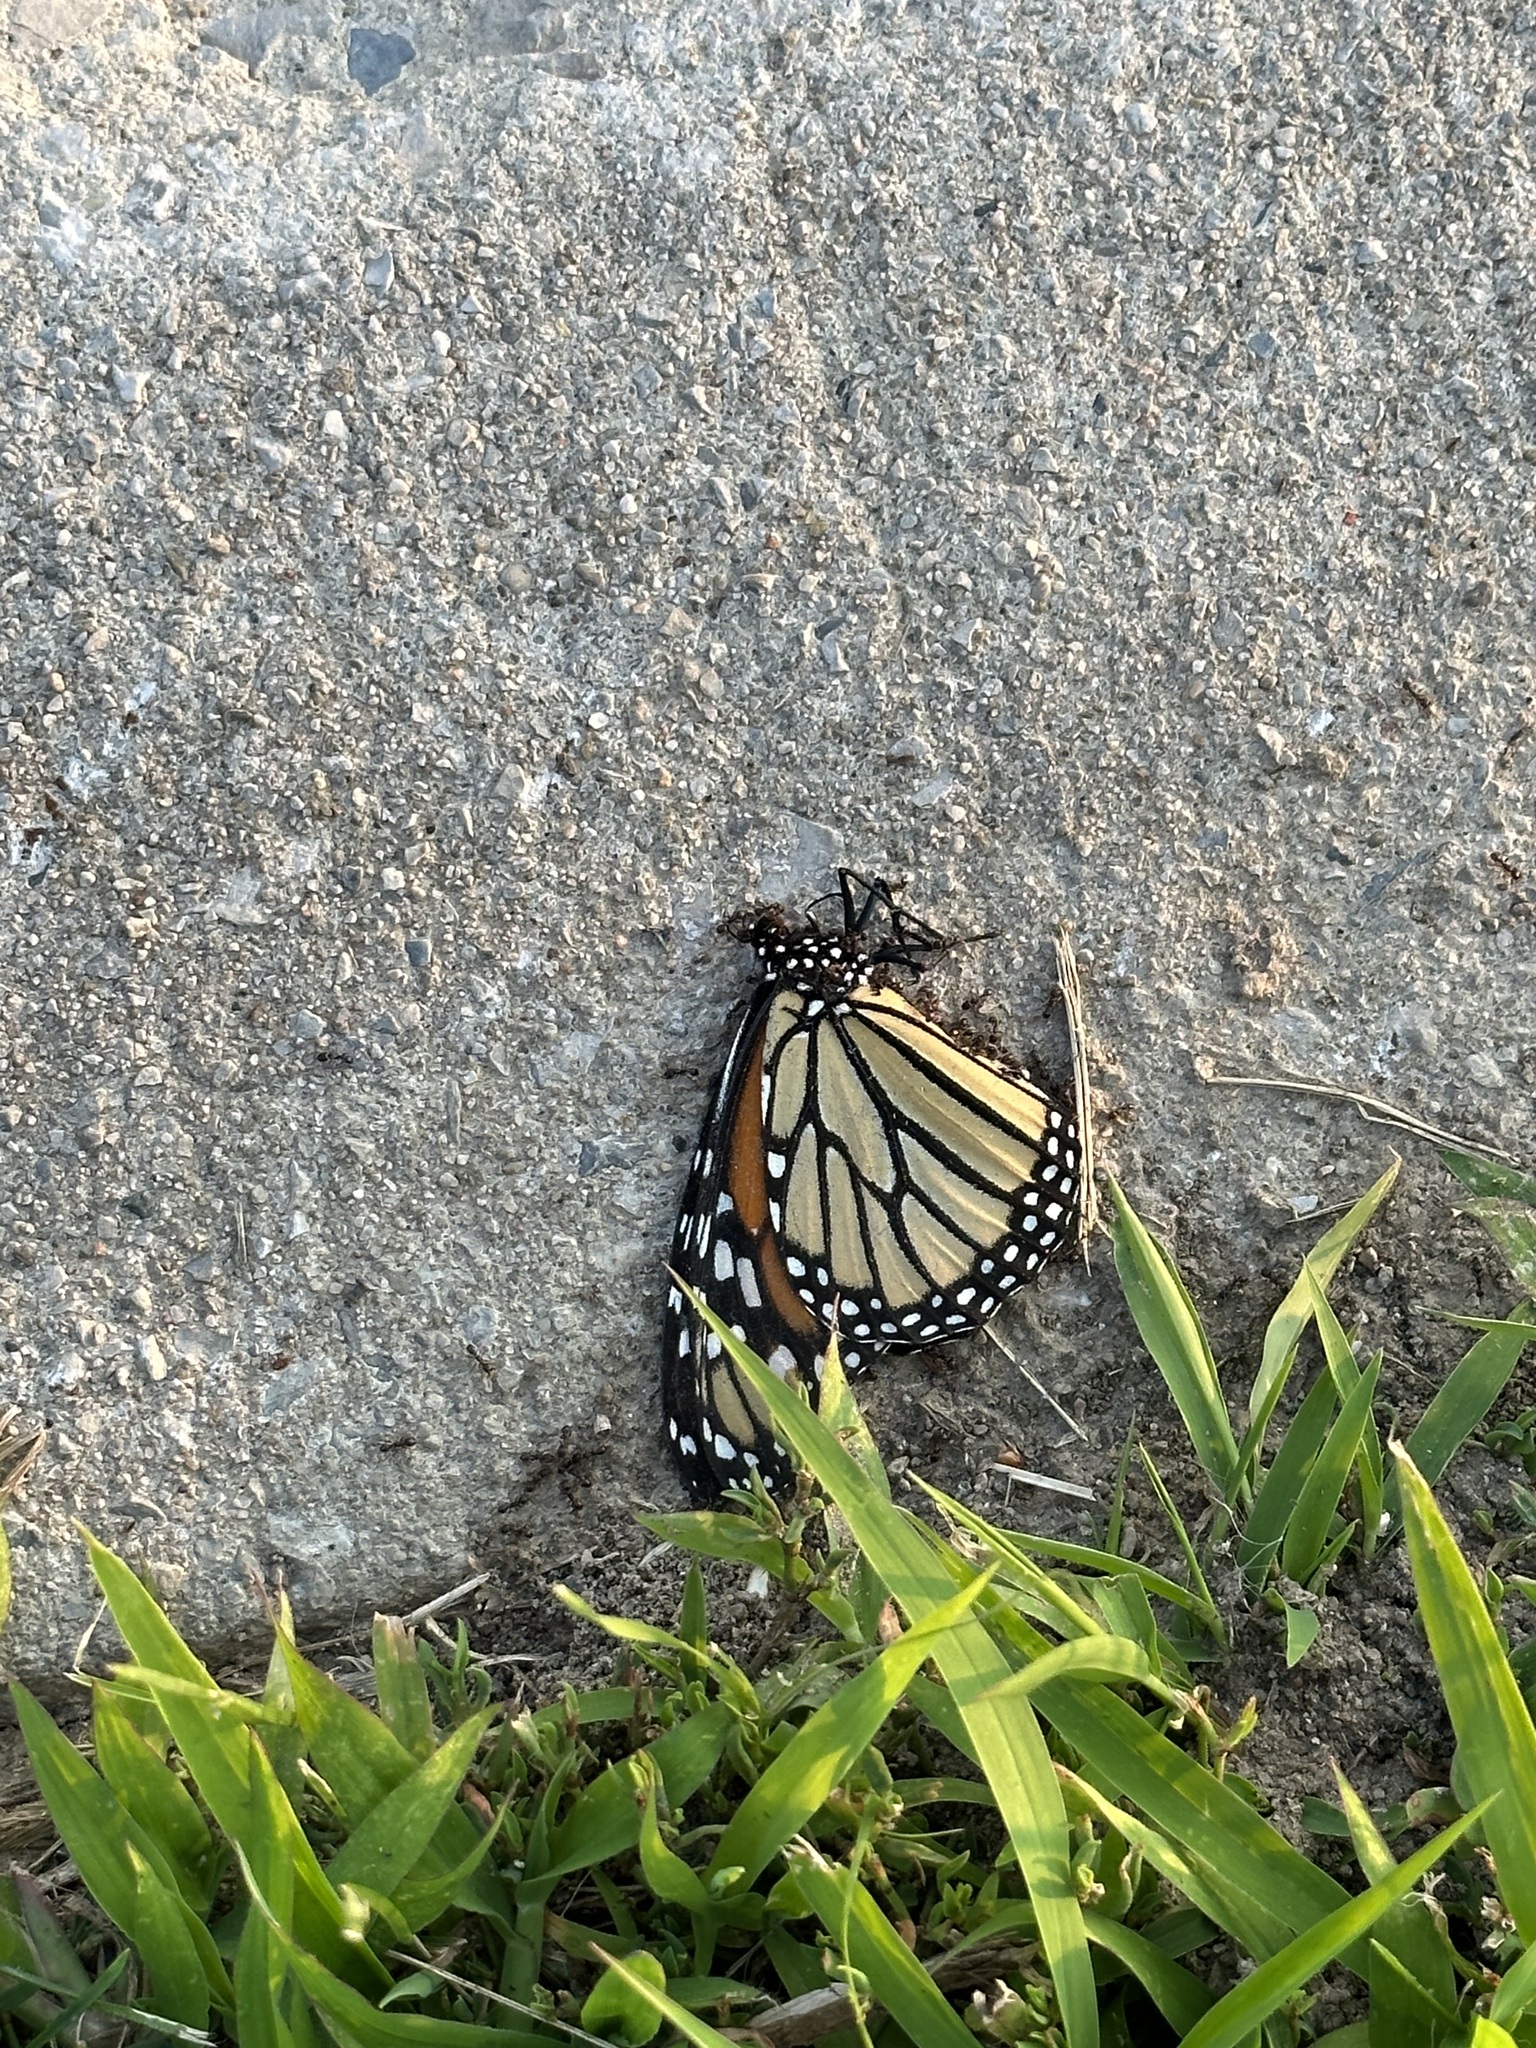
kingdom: Animalia
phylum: Arthropoda
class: Insecta
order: Lepidoptera
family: Nymphalidae
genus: Danaus
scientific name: Danaus plexippus
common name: Monarch
